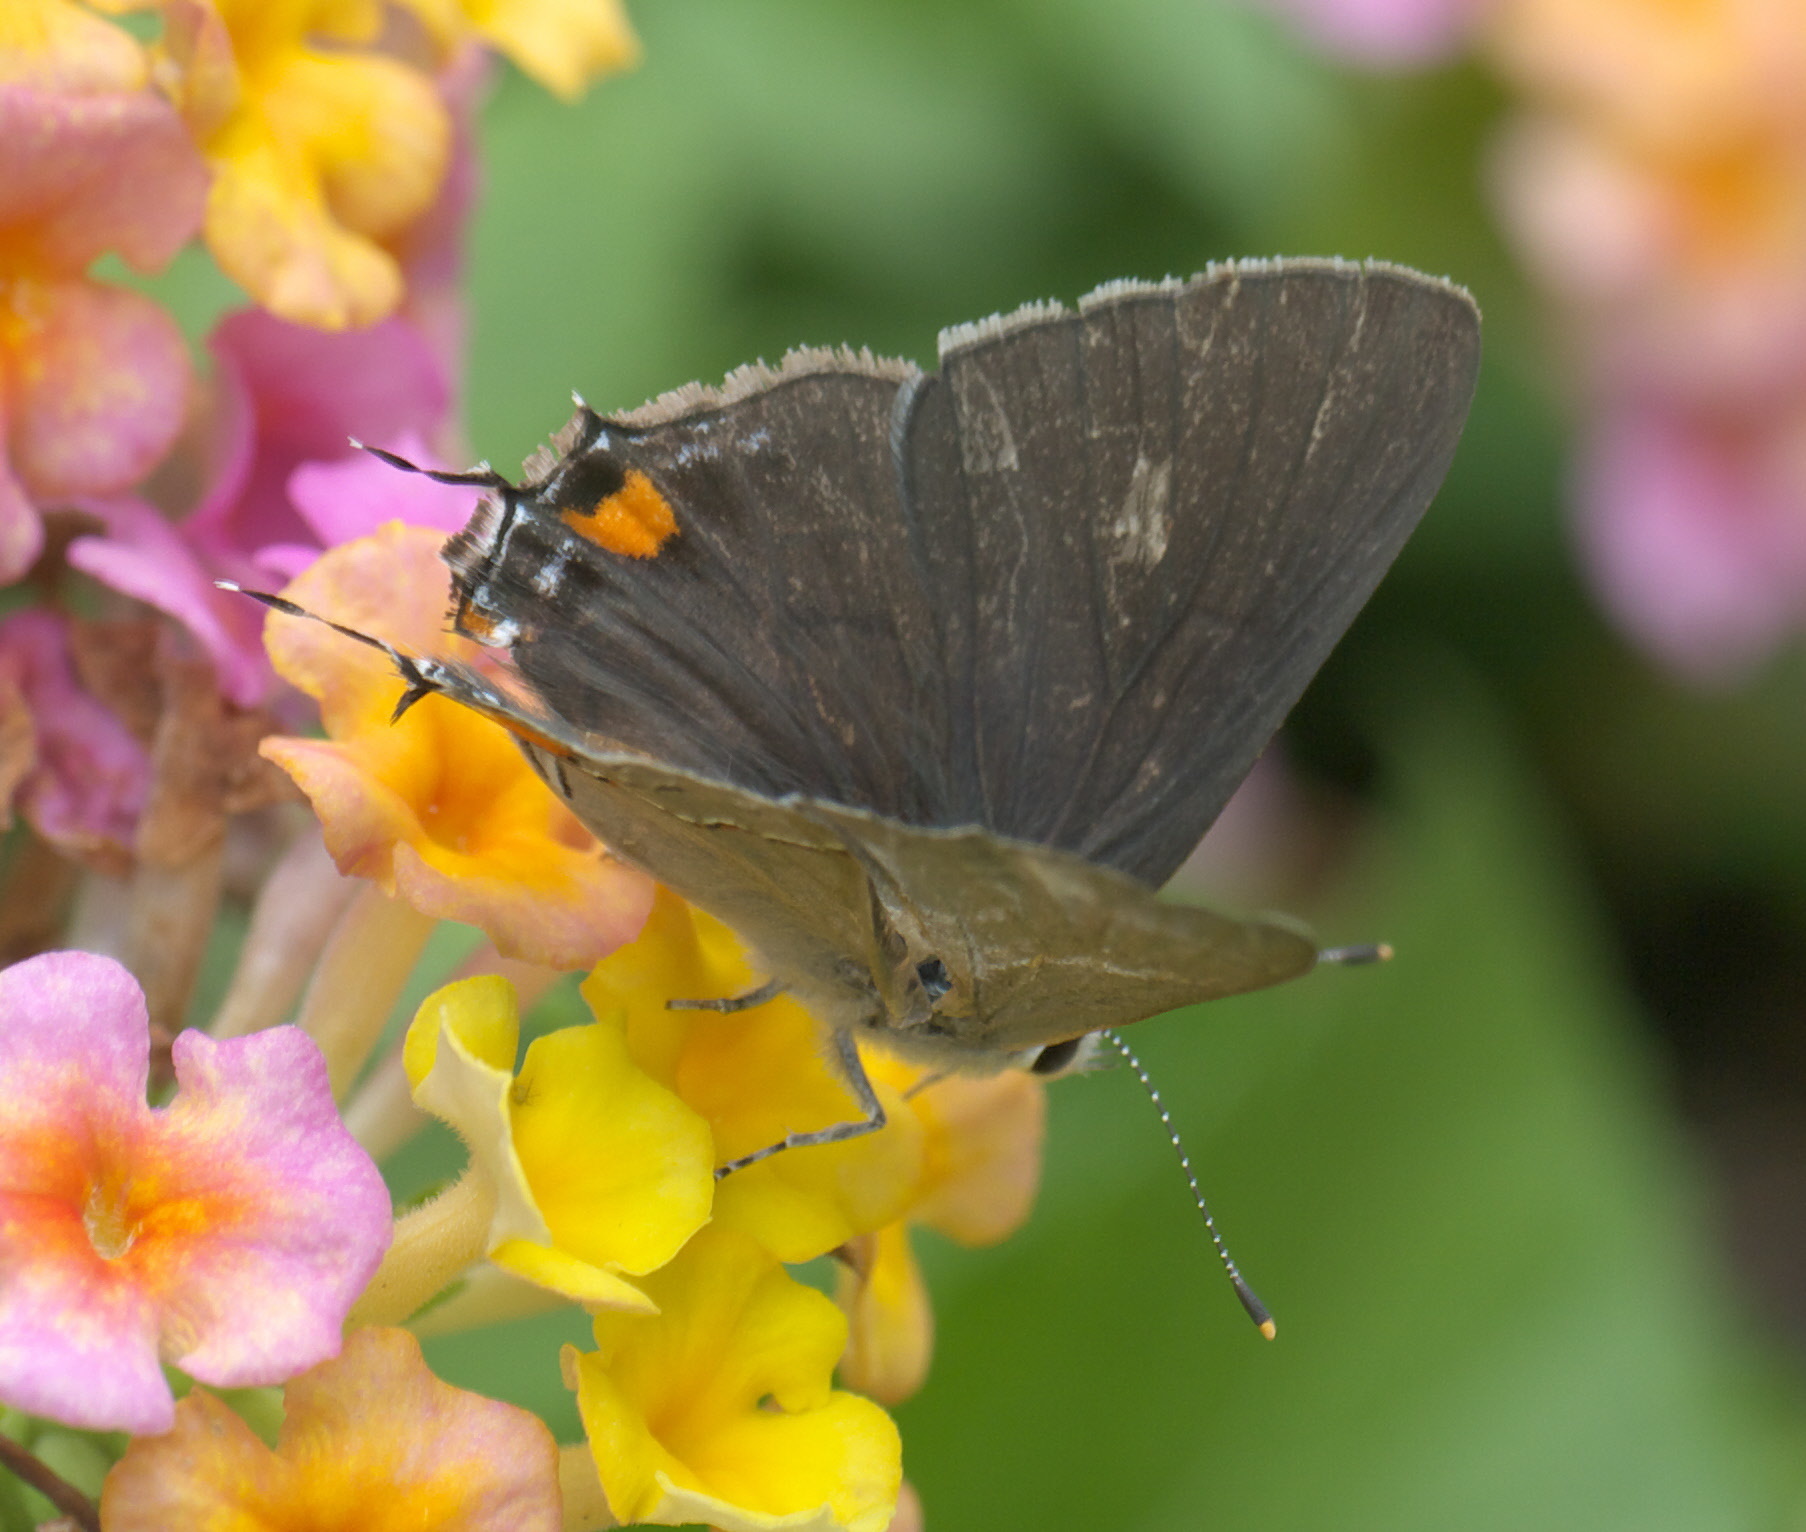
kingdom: Animalia
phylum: Arthropoda
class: Insecta
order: Lepidoptera
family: Lycaenidae
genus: Strymon
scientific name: Strymon melinus
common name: Gray hairstreak
